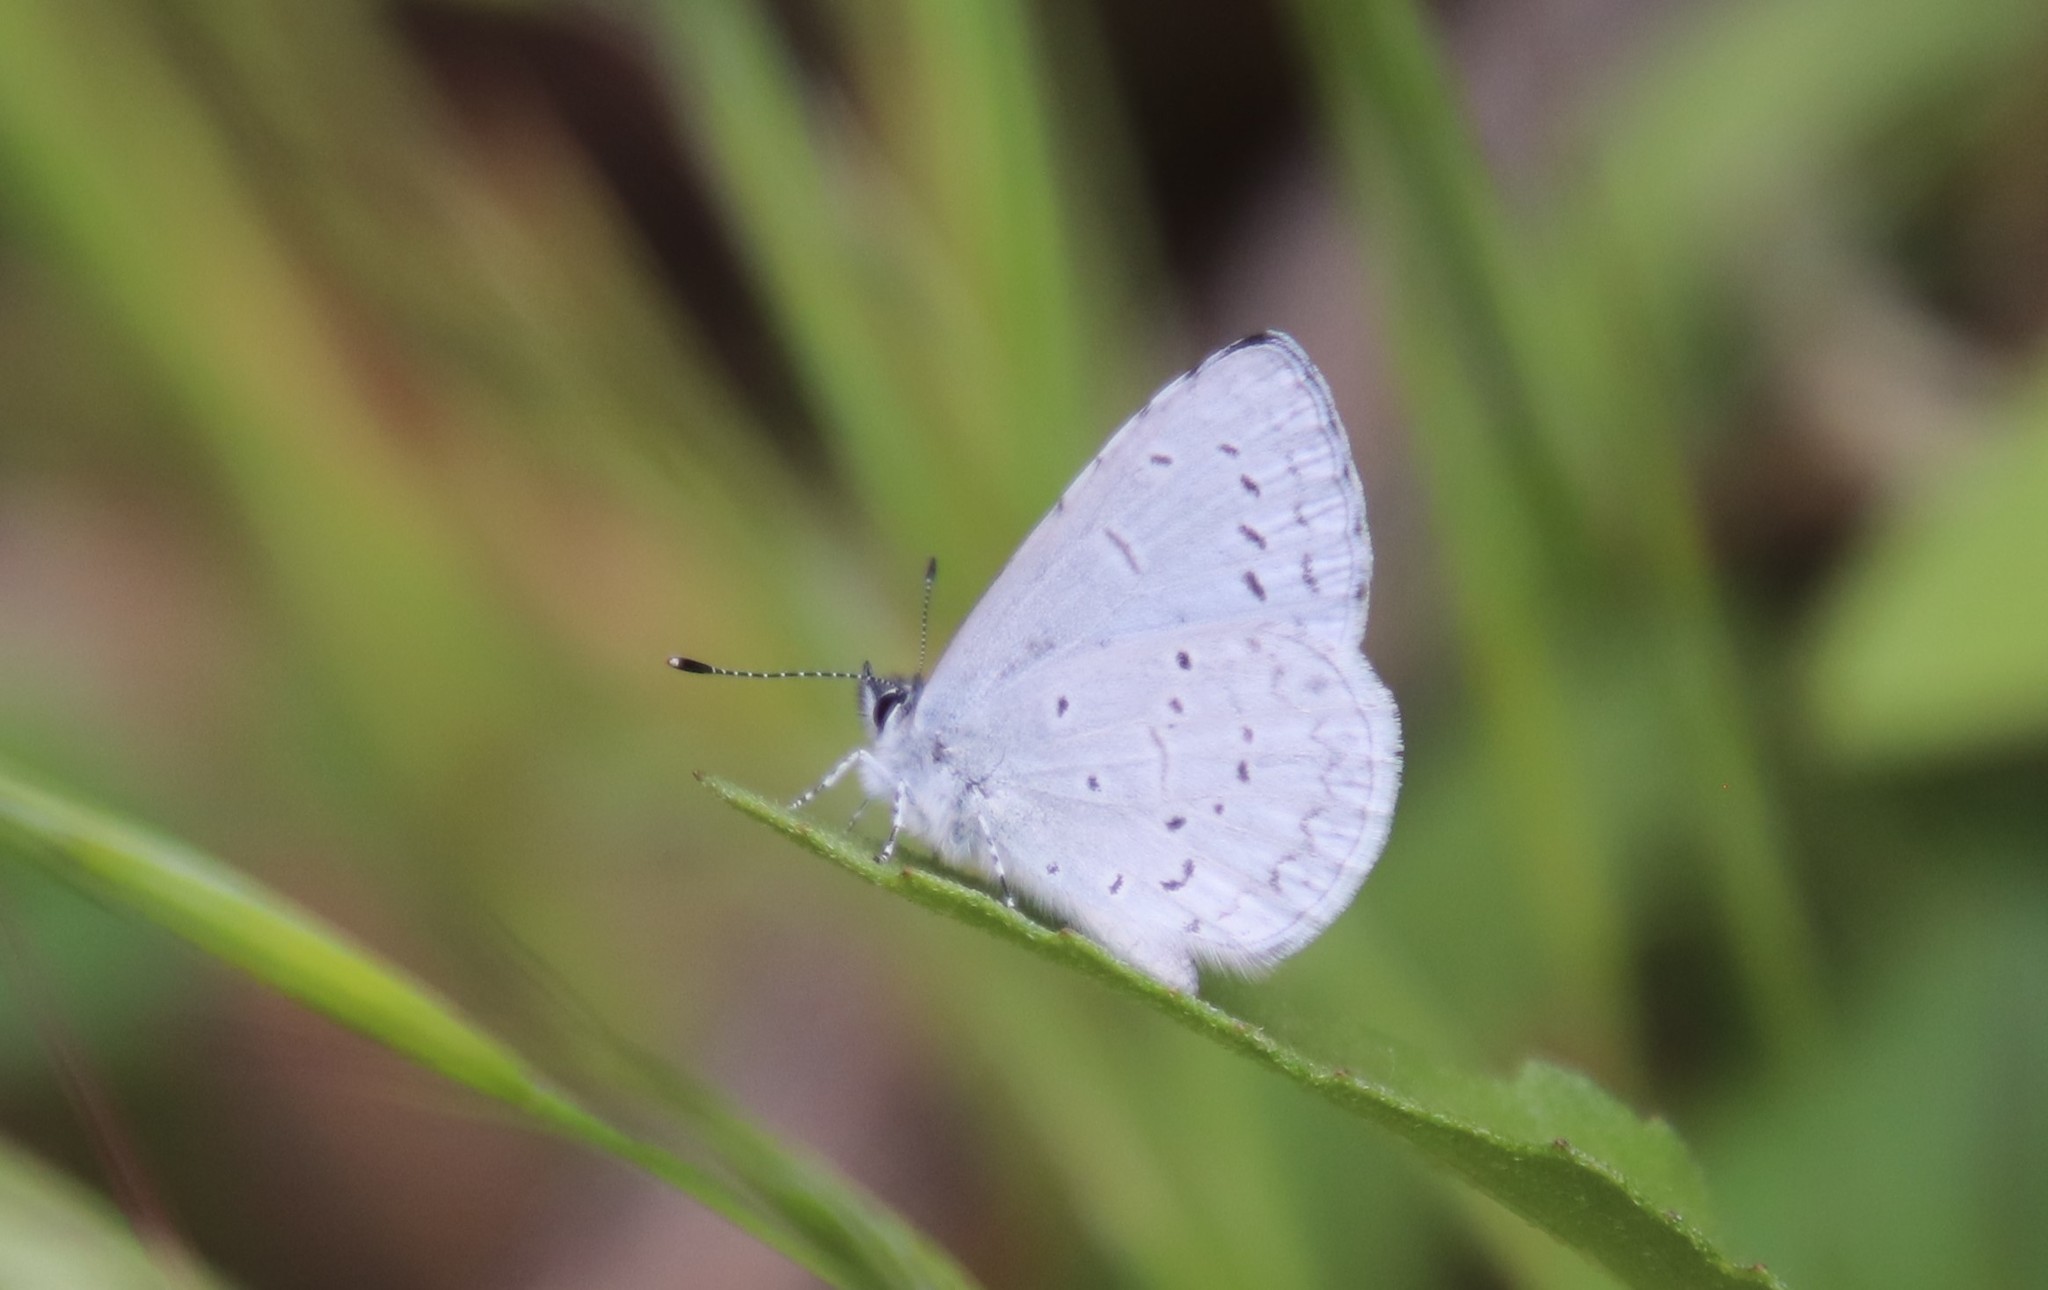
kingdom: Animalia
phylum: Arthropoda
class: Insecta
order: Lepidoptera
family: Lycaenidae
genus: Celastrina
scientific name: Celastrina ladon
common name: Spring azure
